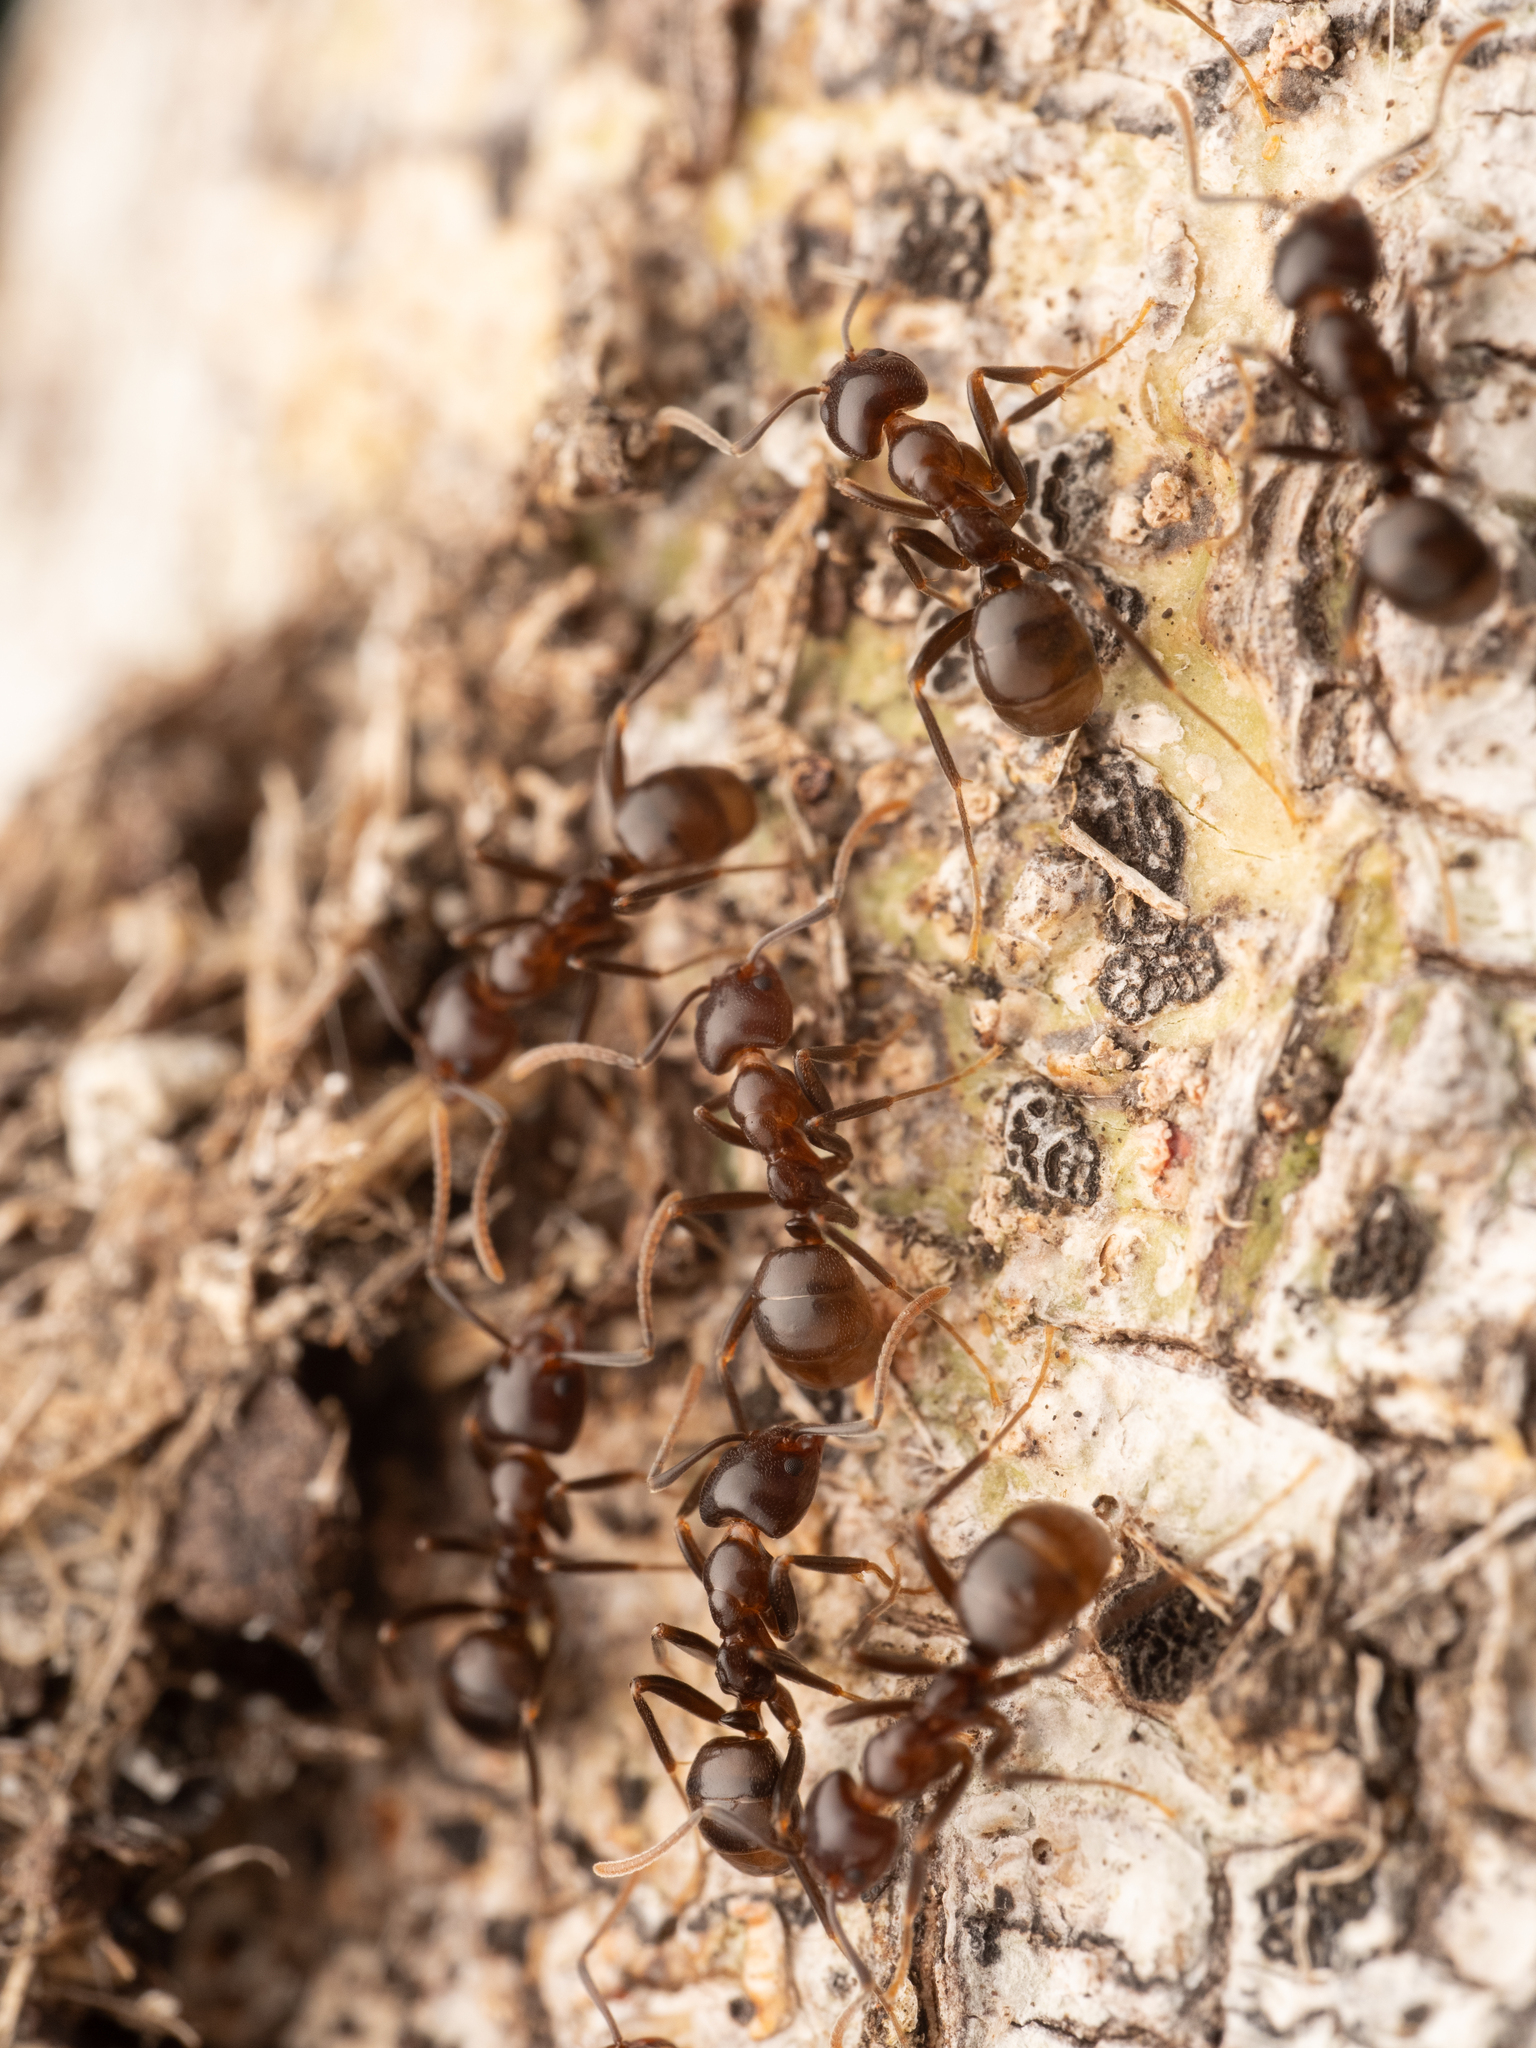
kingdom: Animalia
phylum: Arthropoda
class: Insecta
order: Hymenoptera
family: Formicidae
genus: Papyrius
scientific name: Papyrius nitidus
